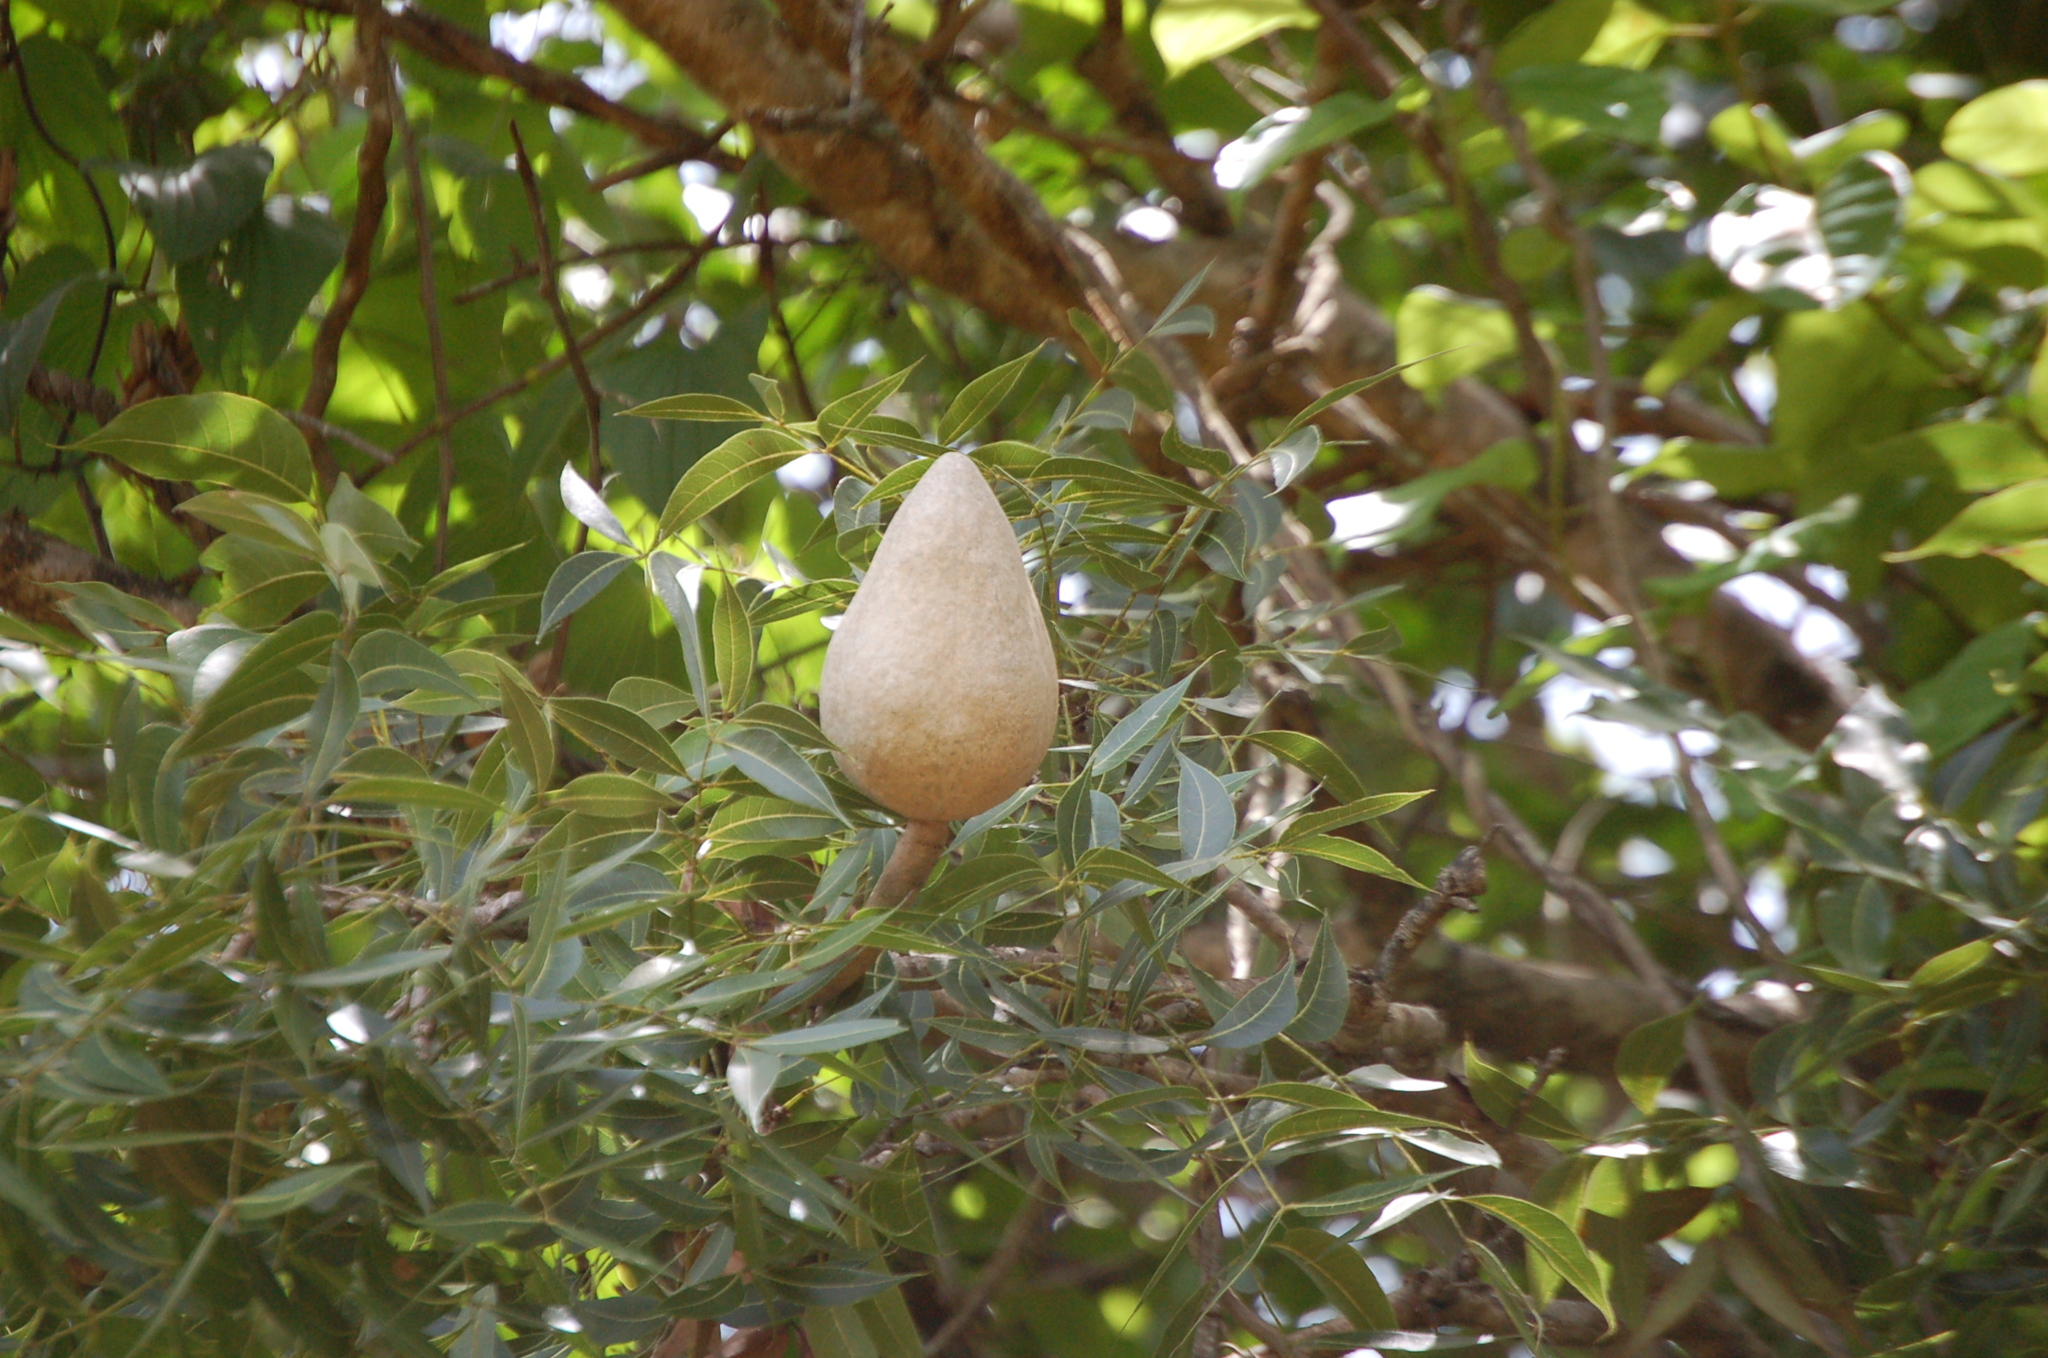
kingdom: Plantae
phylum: Tracheophyta
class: Magnoliopsida
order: Sapindales
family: Meliaceae
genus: Swietenia
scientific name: Swietenia humilis
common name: Pacific coast mahogany
